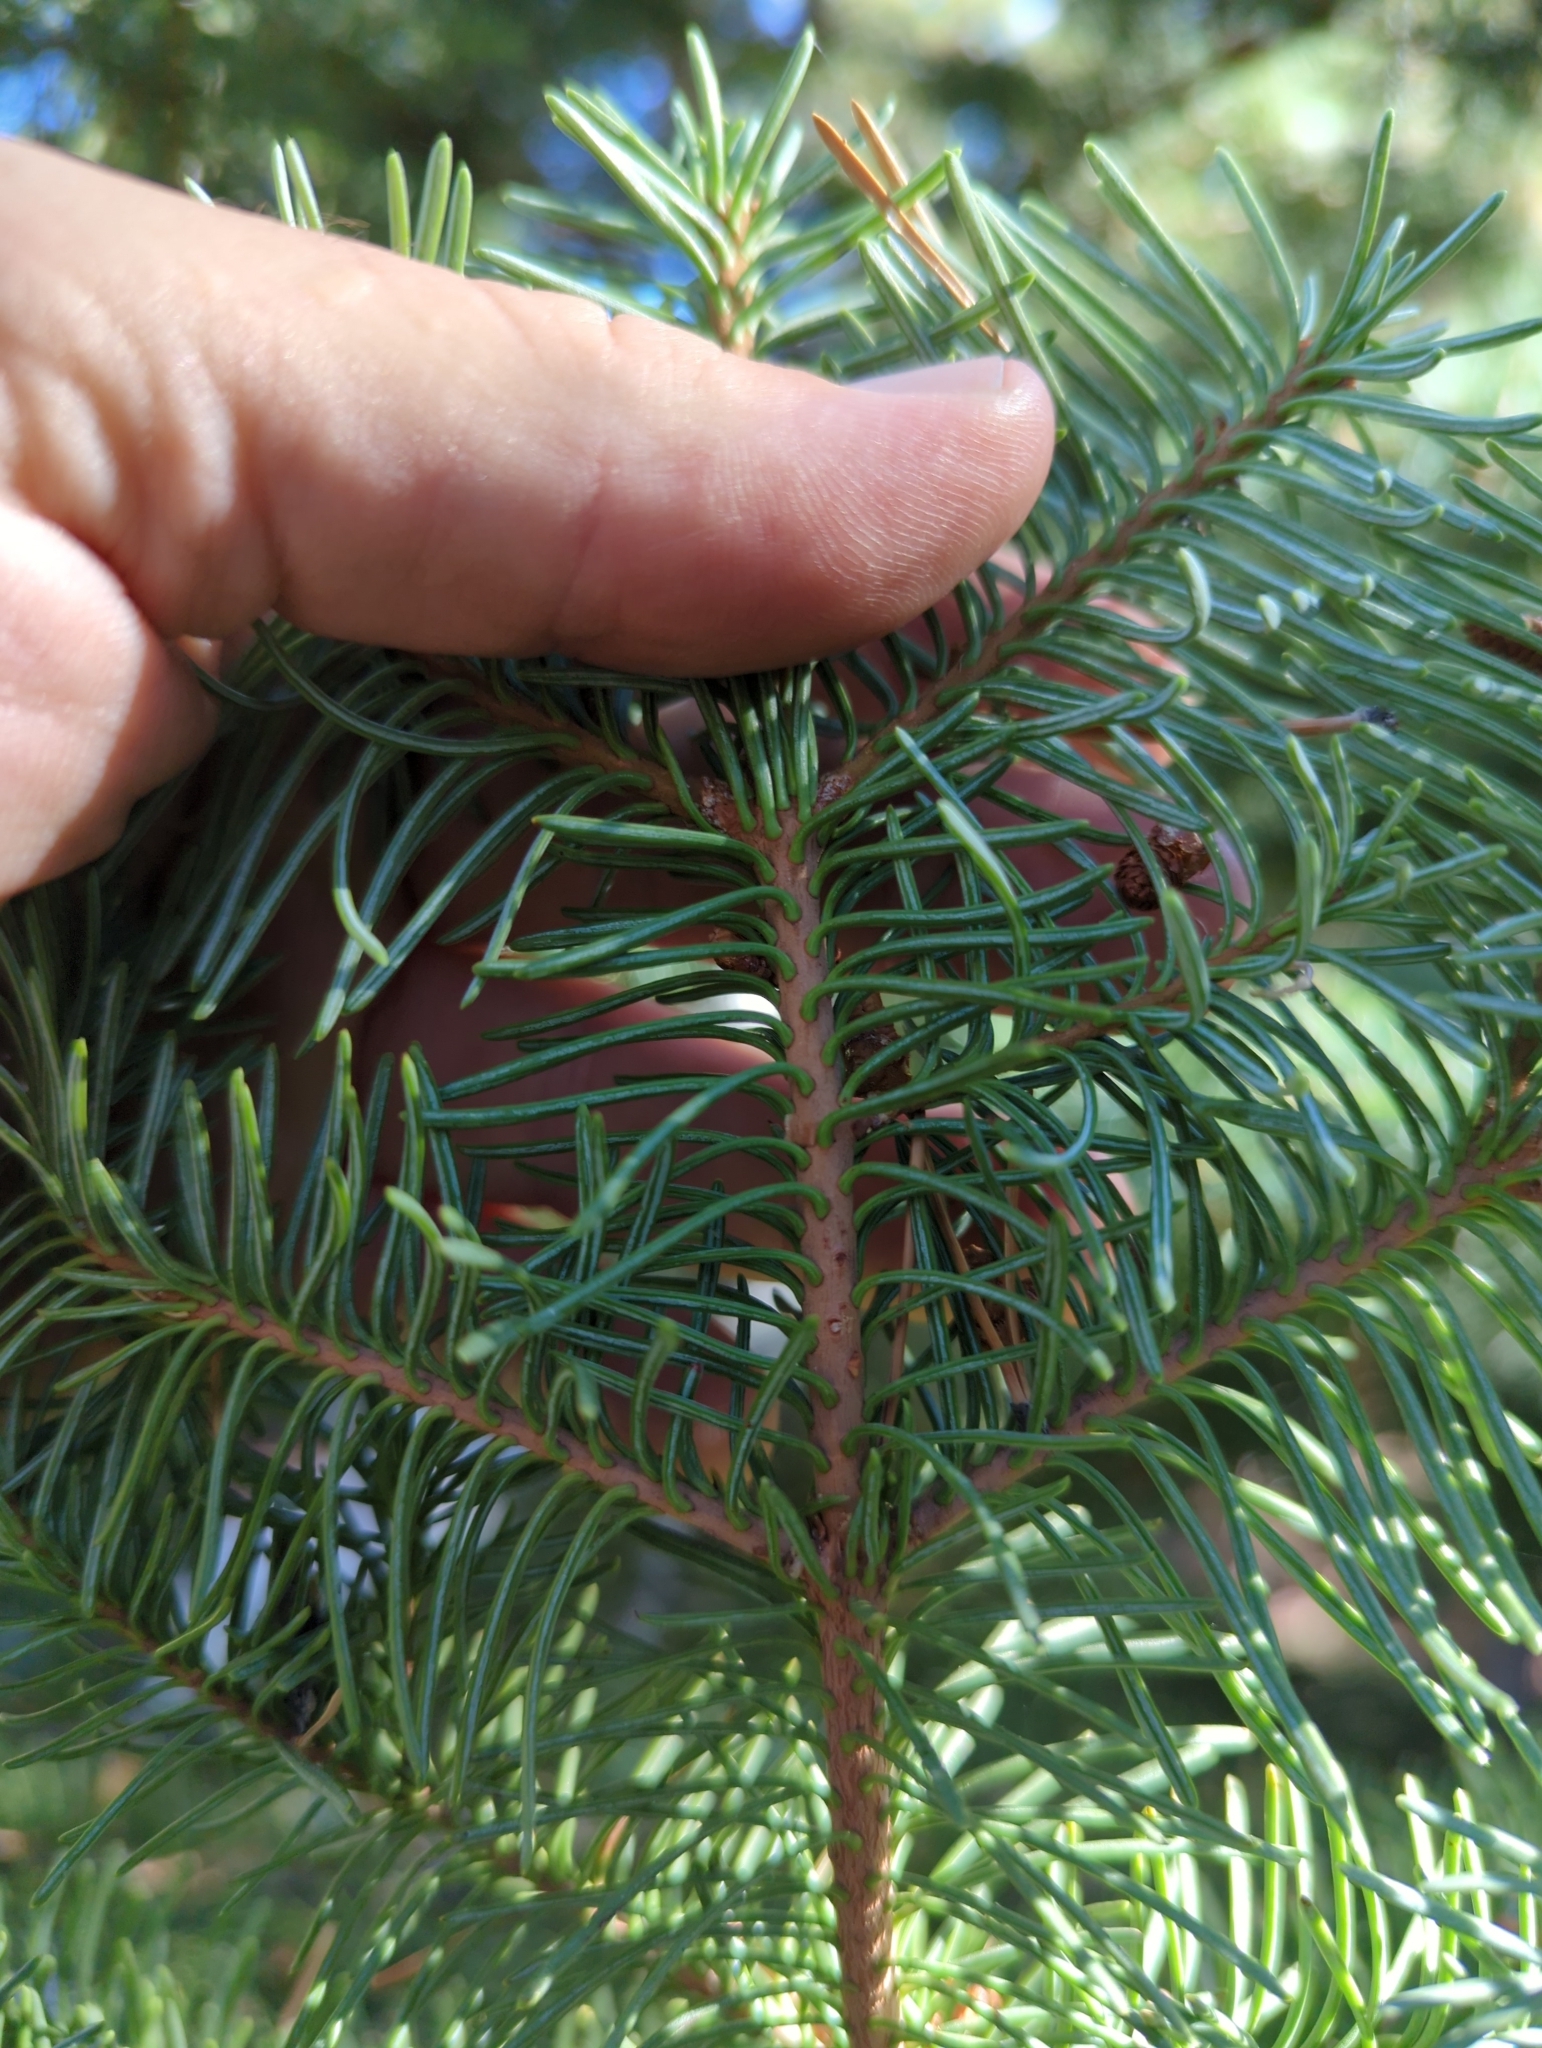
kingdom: Plantae
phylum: Tracheophyta
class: Pinopsida
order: Pinales
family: Pinaceae
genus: Abies
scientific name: Abies magnifica bis
